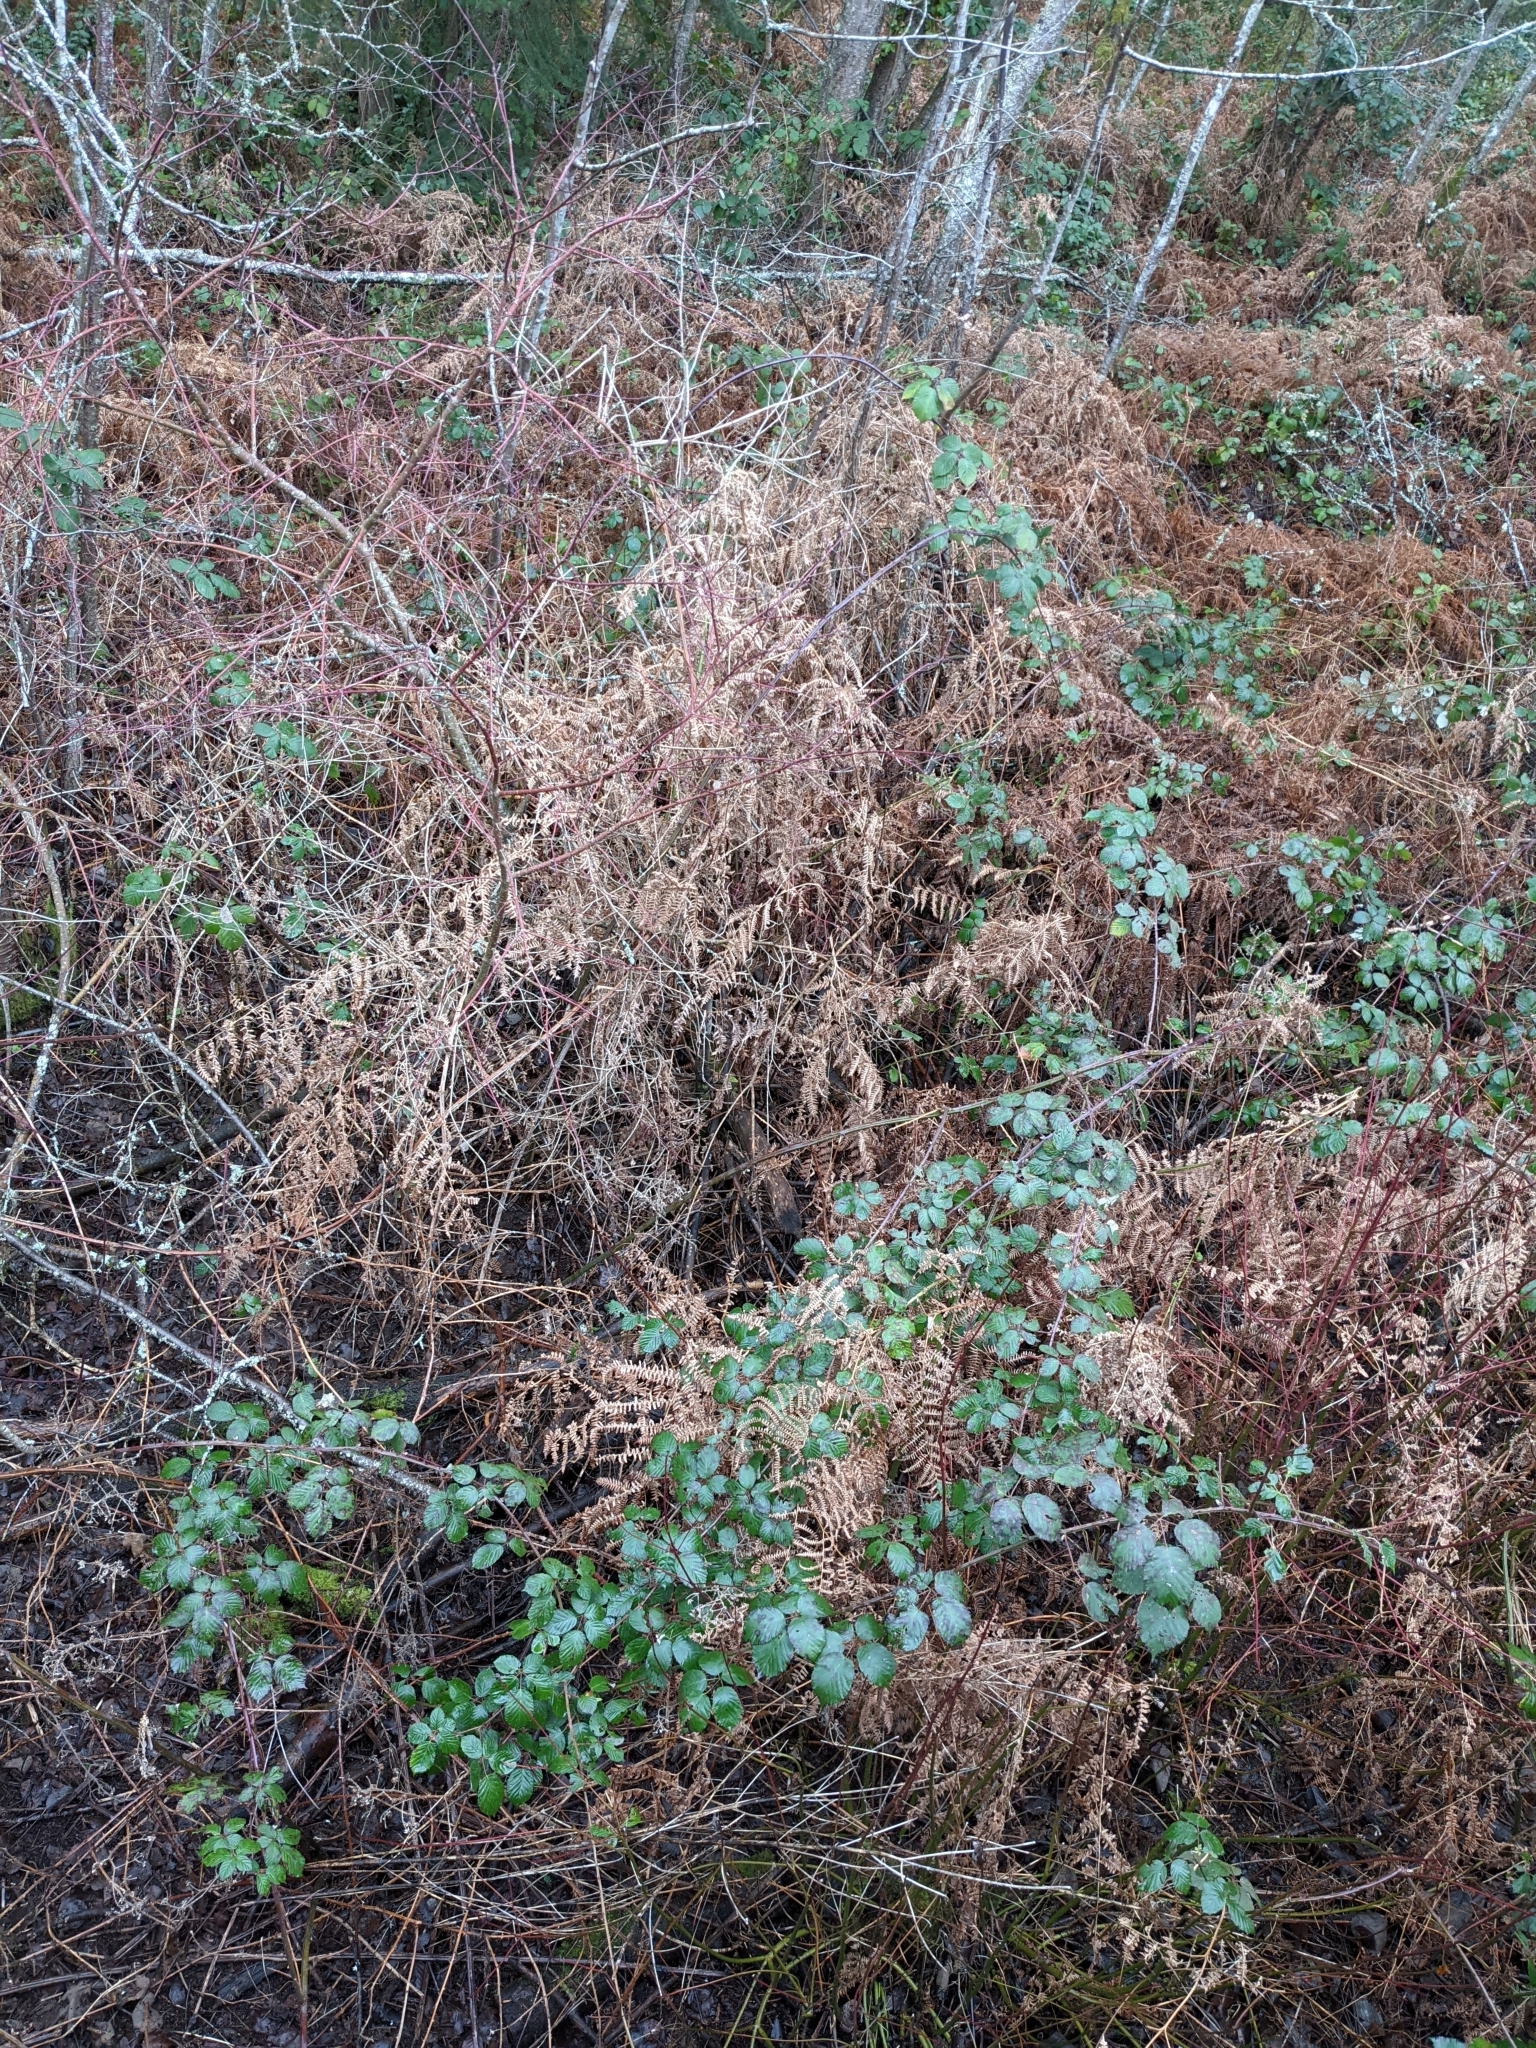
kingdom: Plantae
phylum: Tracheophyta
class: Polypodiopsida
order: Polypodiales
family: Dennstaedtiaceae
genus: Pteridium
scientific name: Pteridium aquilinum
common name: Bracken
